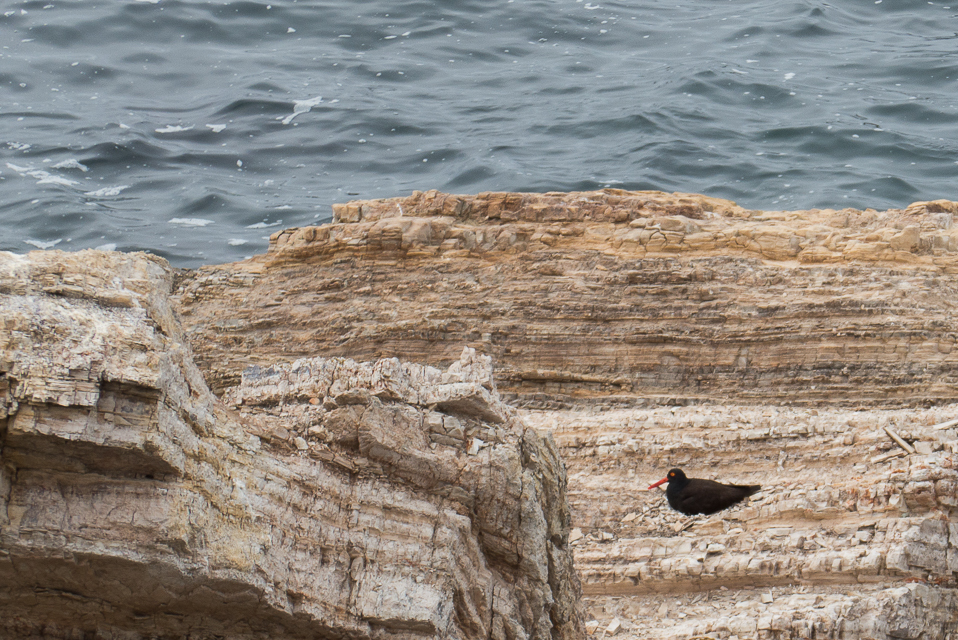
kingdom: Animalia
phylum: Chordata
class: Aves
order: Charadriiformes
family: Haematopodidae
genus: Haematopus
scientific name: Haematopus bachmani
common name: Black oystercatcher
